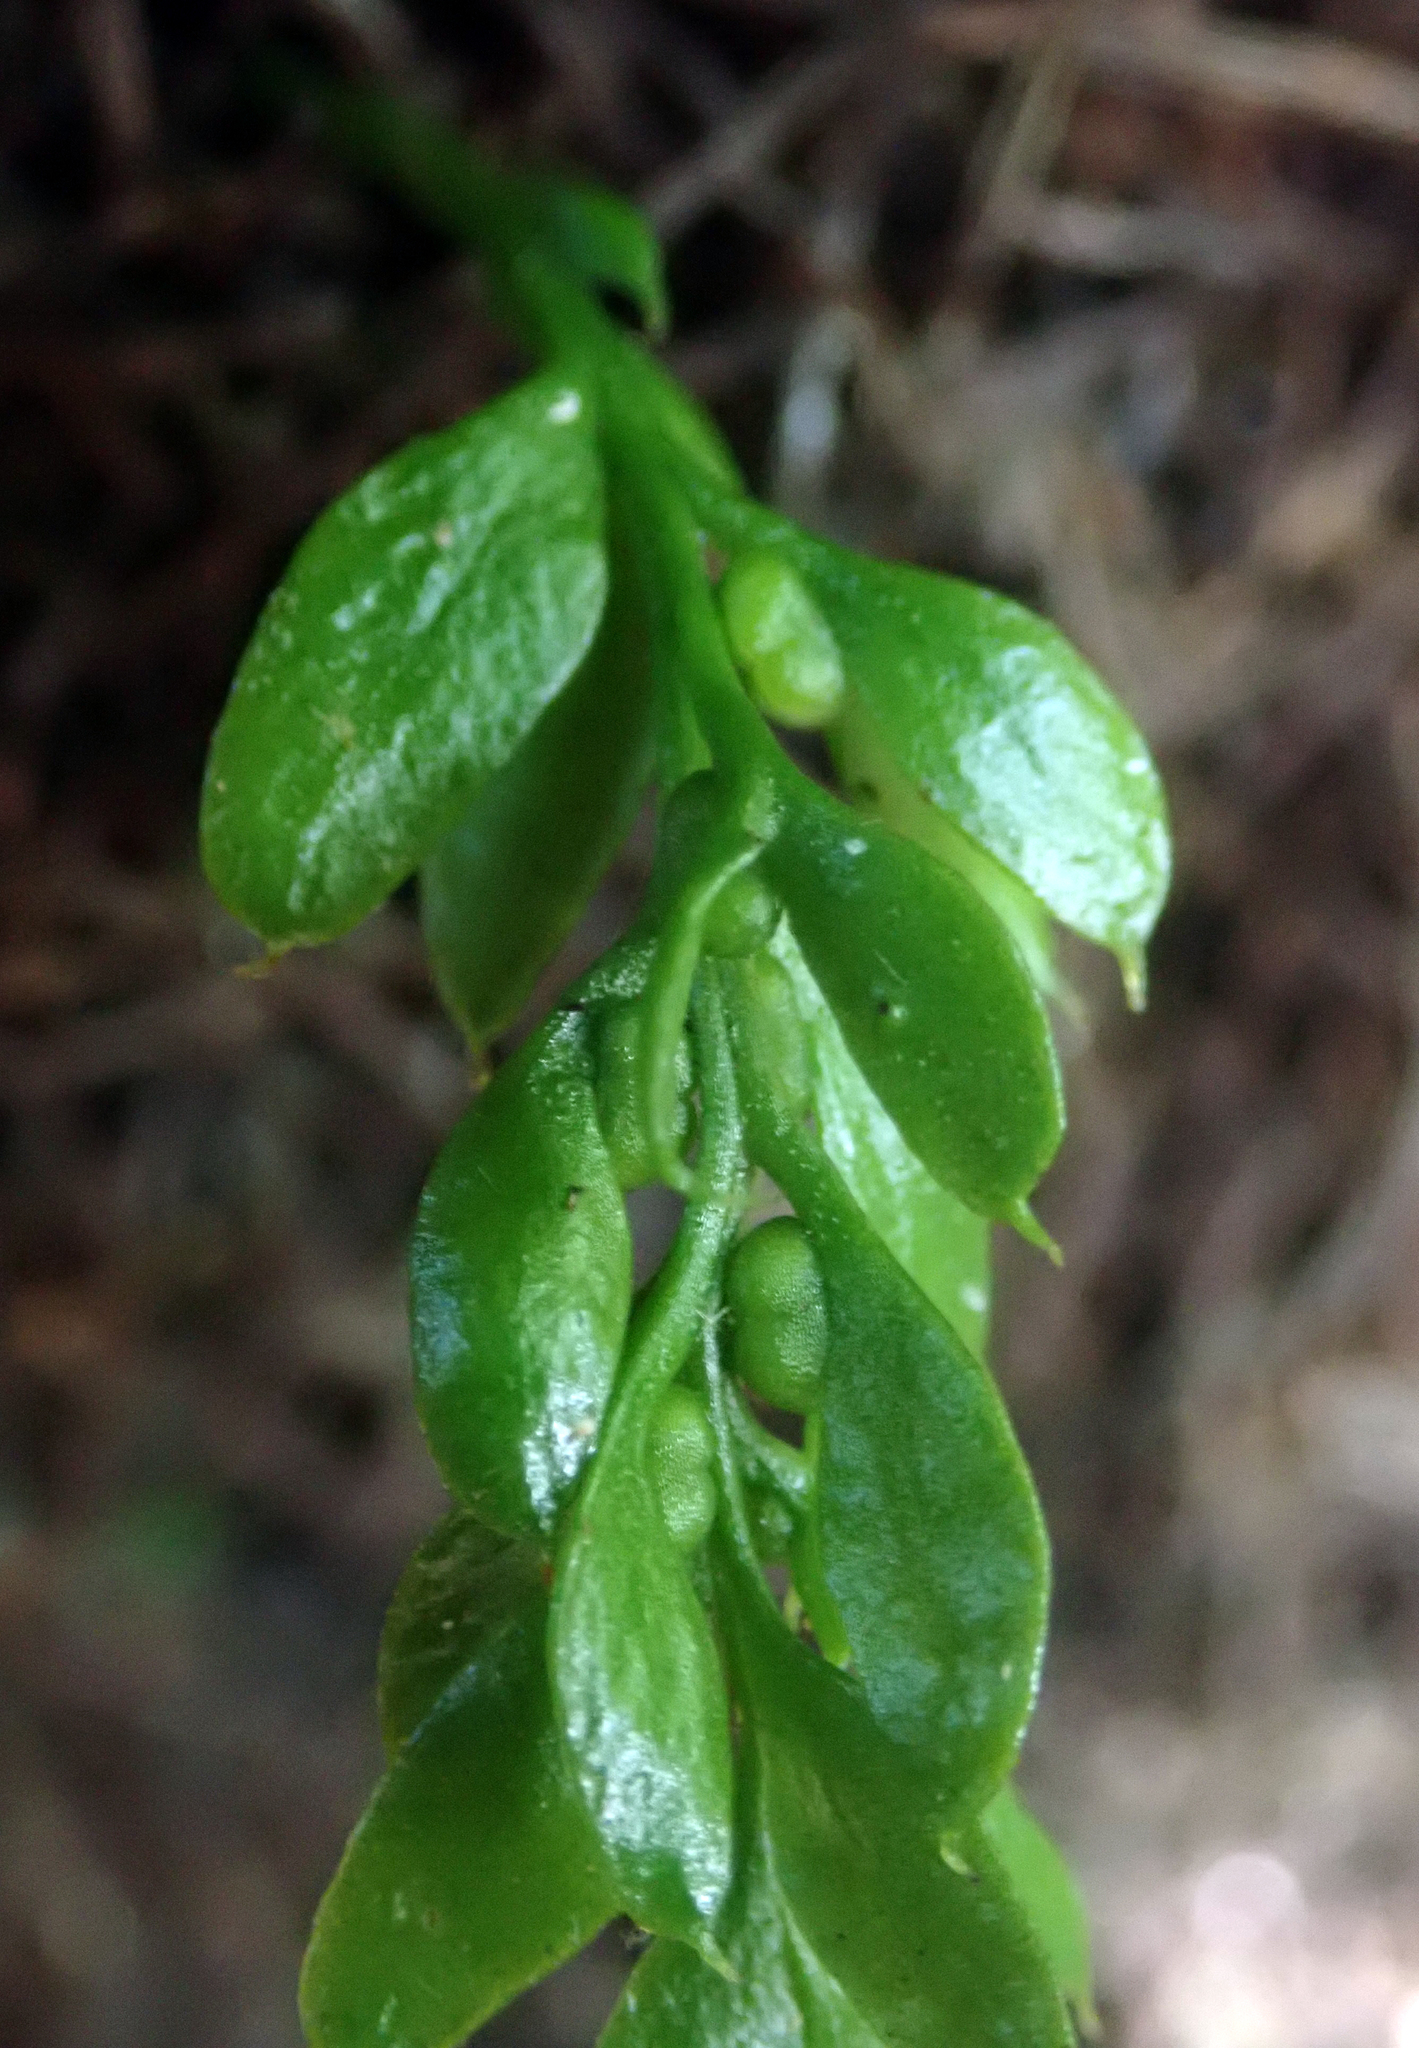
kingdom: Plantae
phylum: Tracheophyta
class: Polypodiopsida
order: Psilotales
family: Psilotaceae
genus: Tmesipteris
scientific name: Tmesipteris lanceolata
